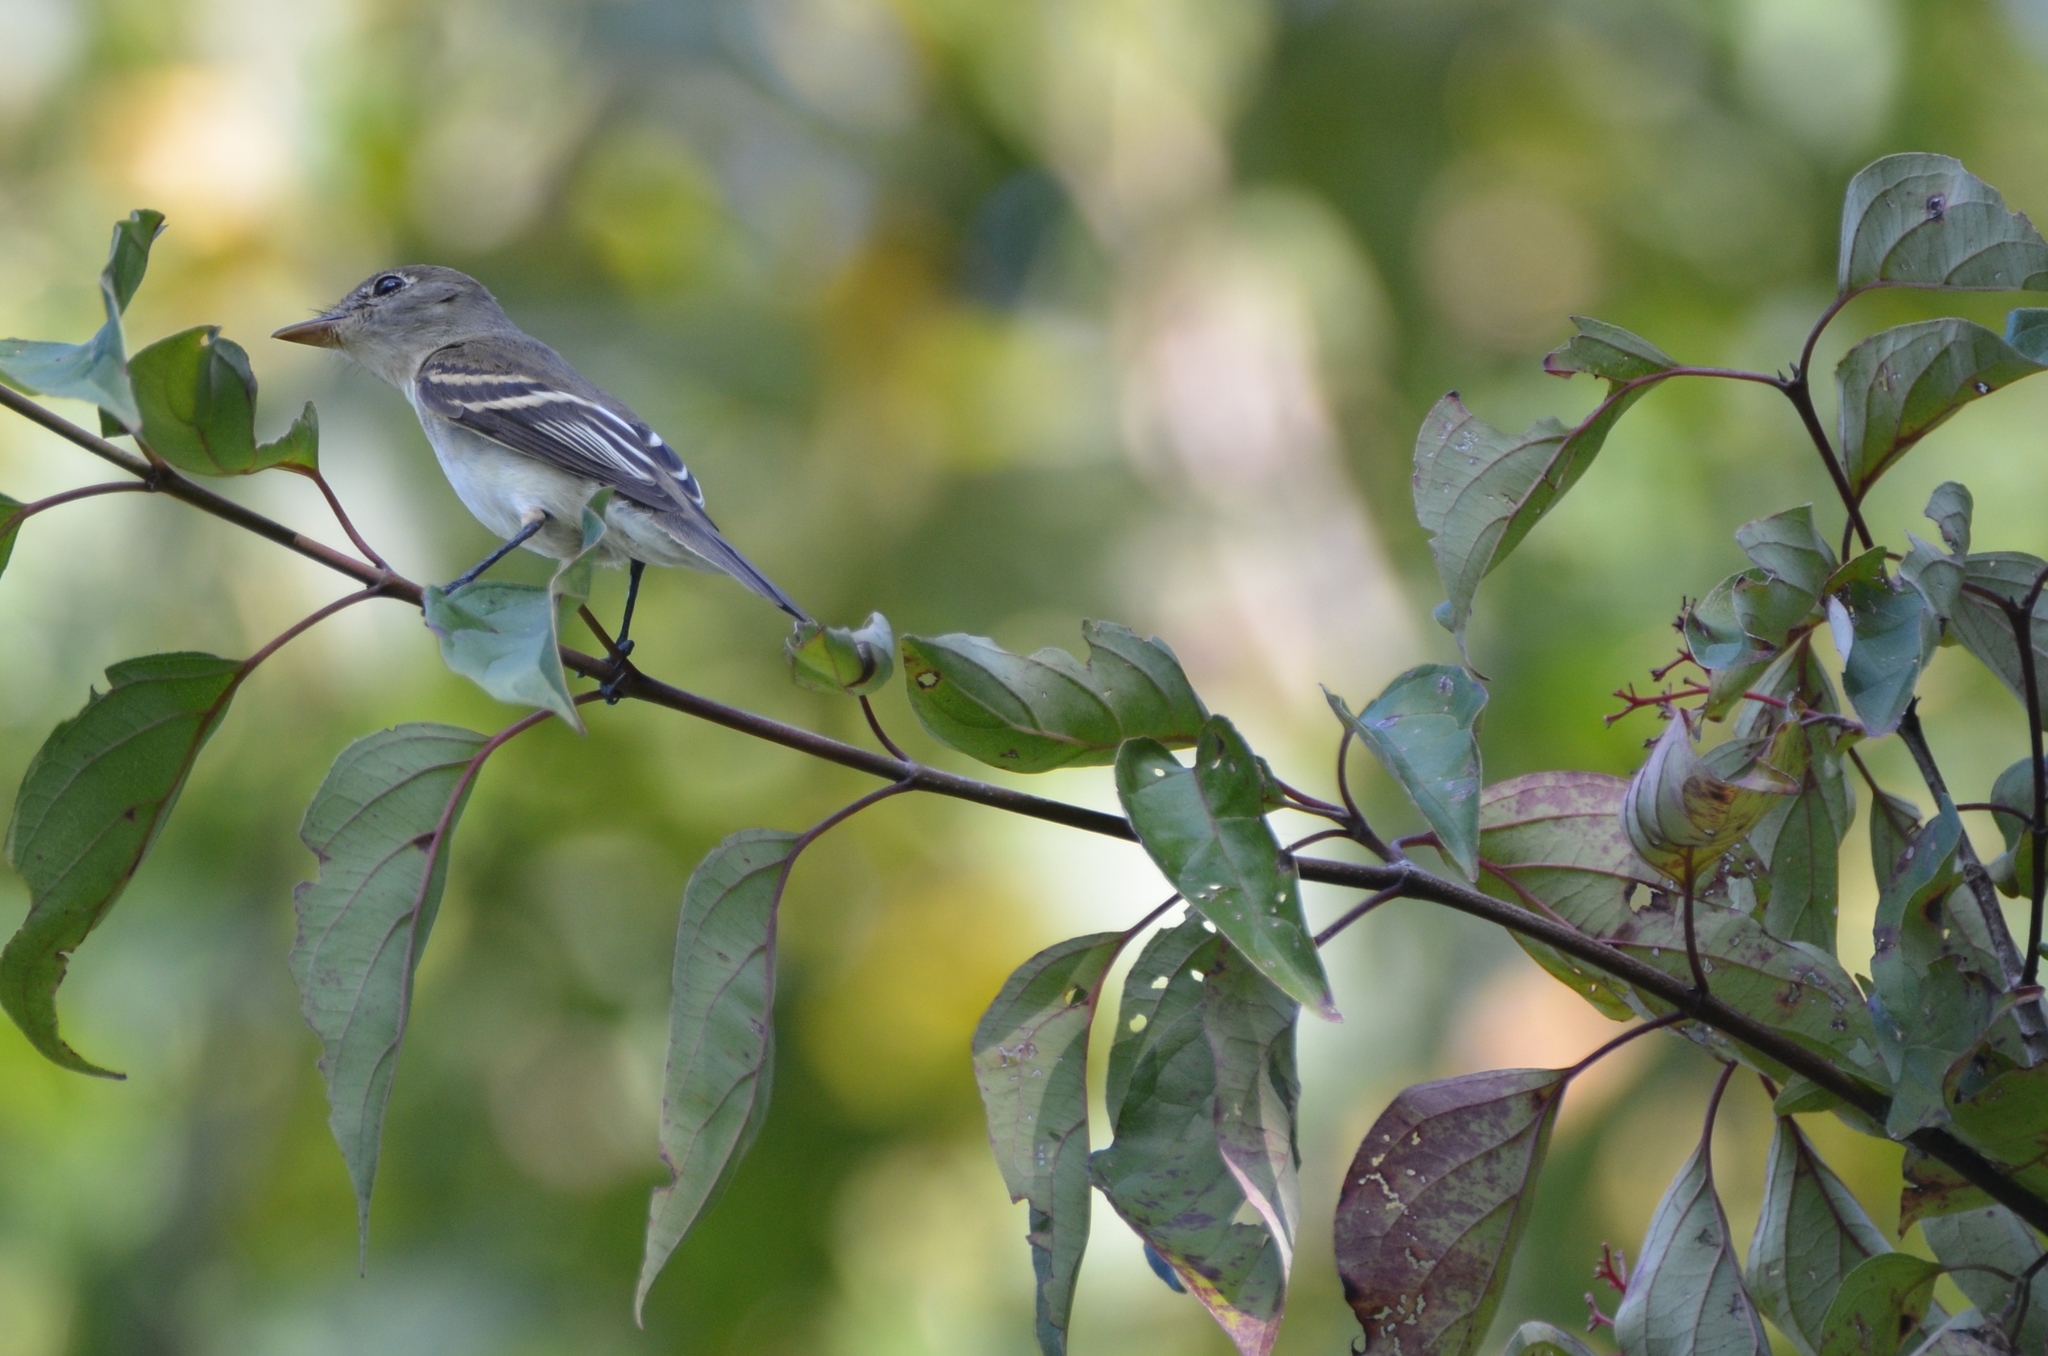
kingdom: Animalia
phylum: Chordata
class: Aves
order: Passeriformes
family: Tyrannidae
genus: Empidonax
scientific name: Empidonax alnorum
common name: Alder flycatcher
